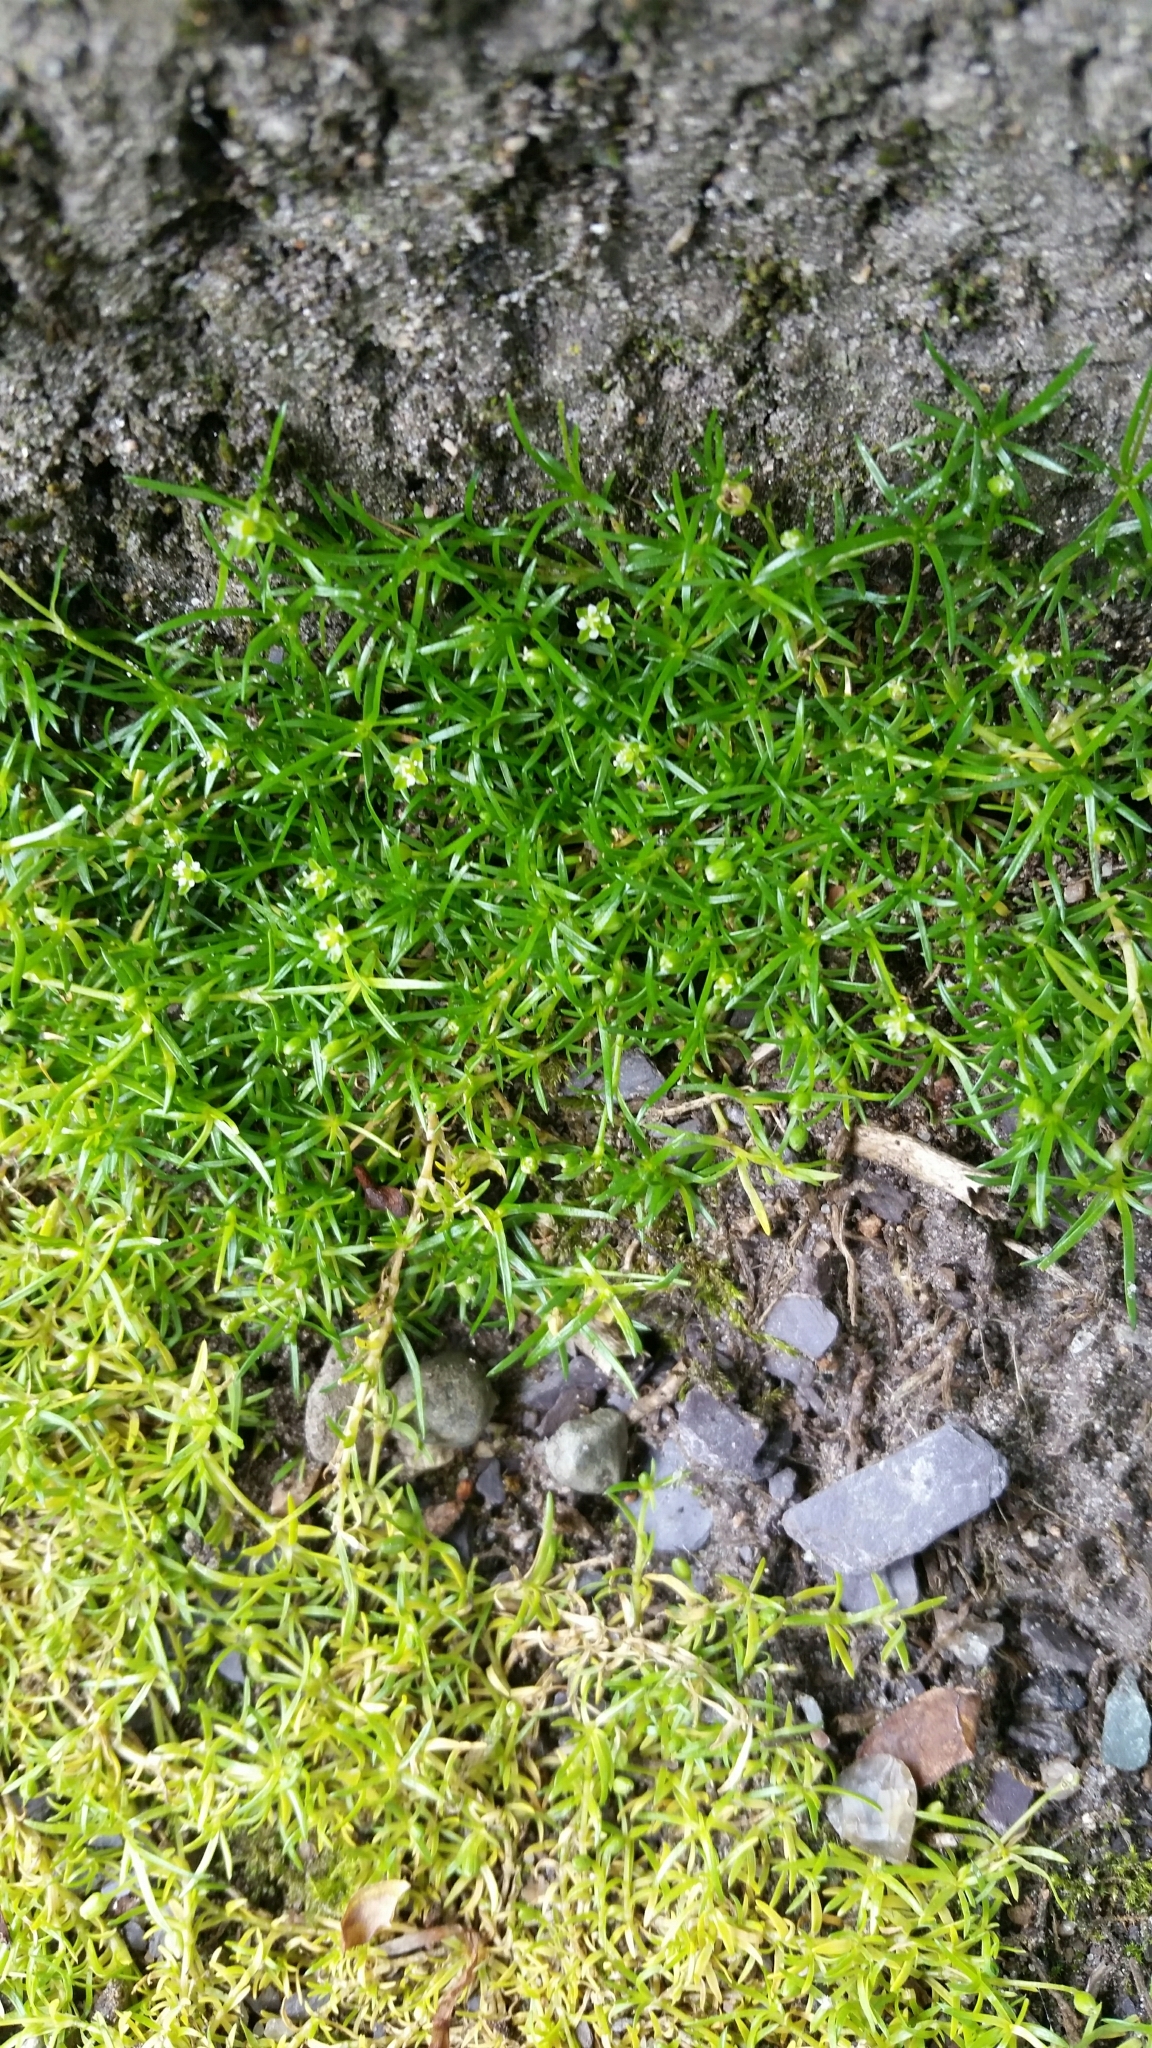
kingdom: Plantae
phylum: Tracheophyta
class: Magnoliopsida
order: Caryophyllales
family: Caryophyllaceae
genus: Sagina
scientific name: Sagina procumbens
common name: Procumbent pearlwort
